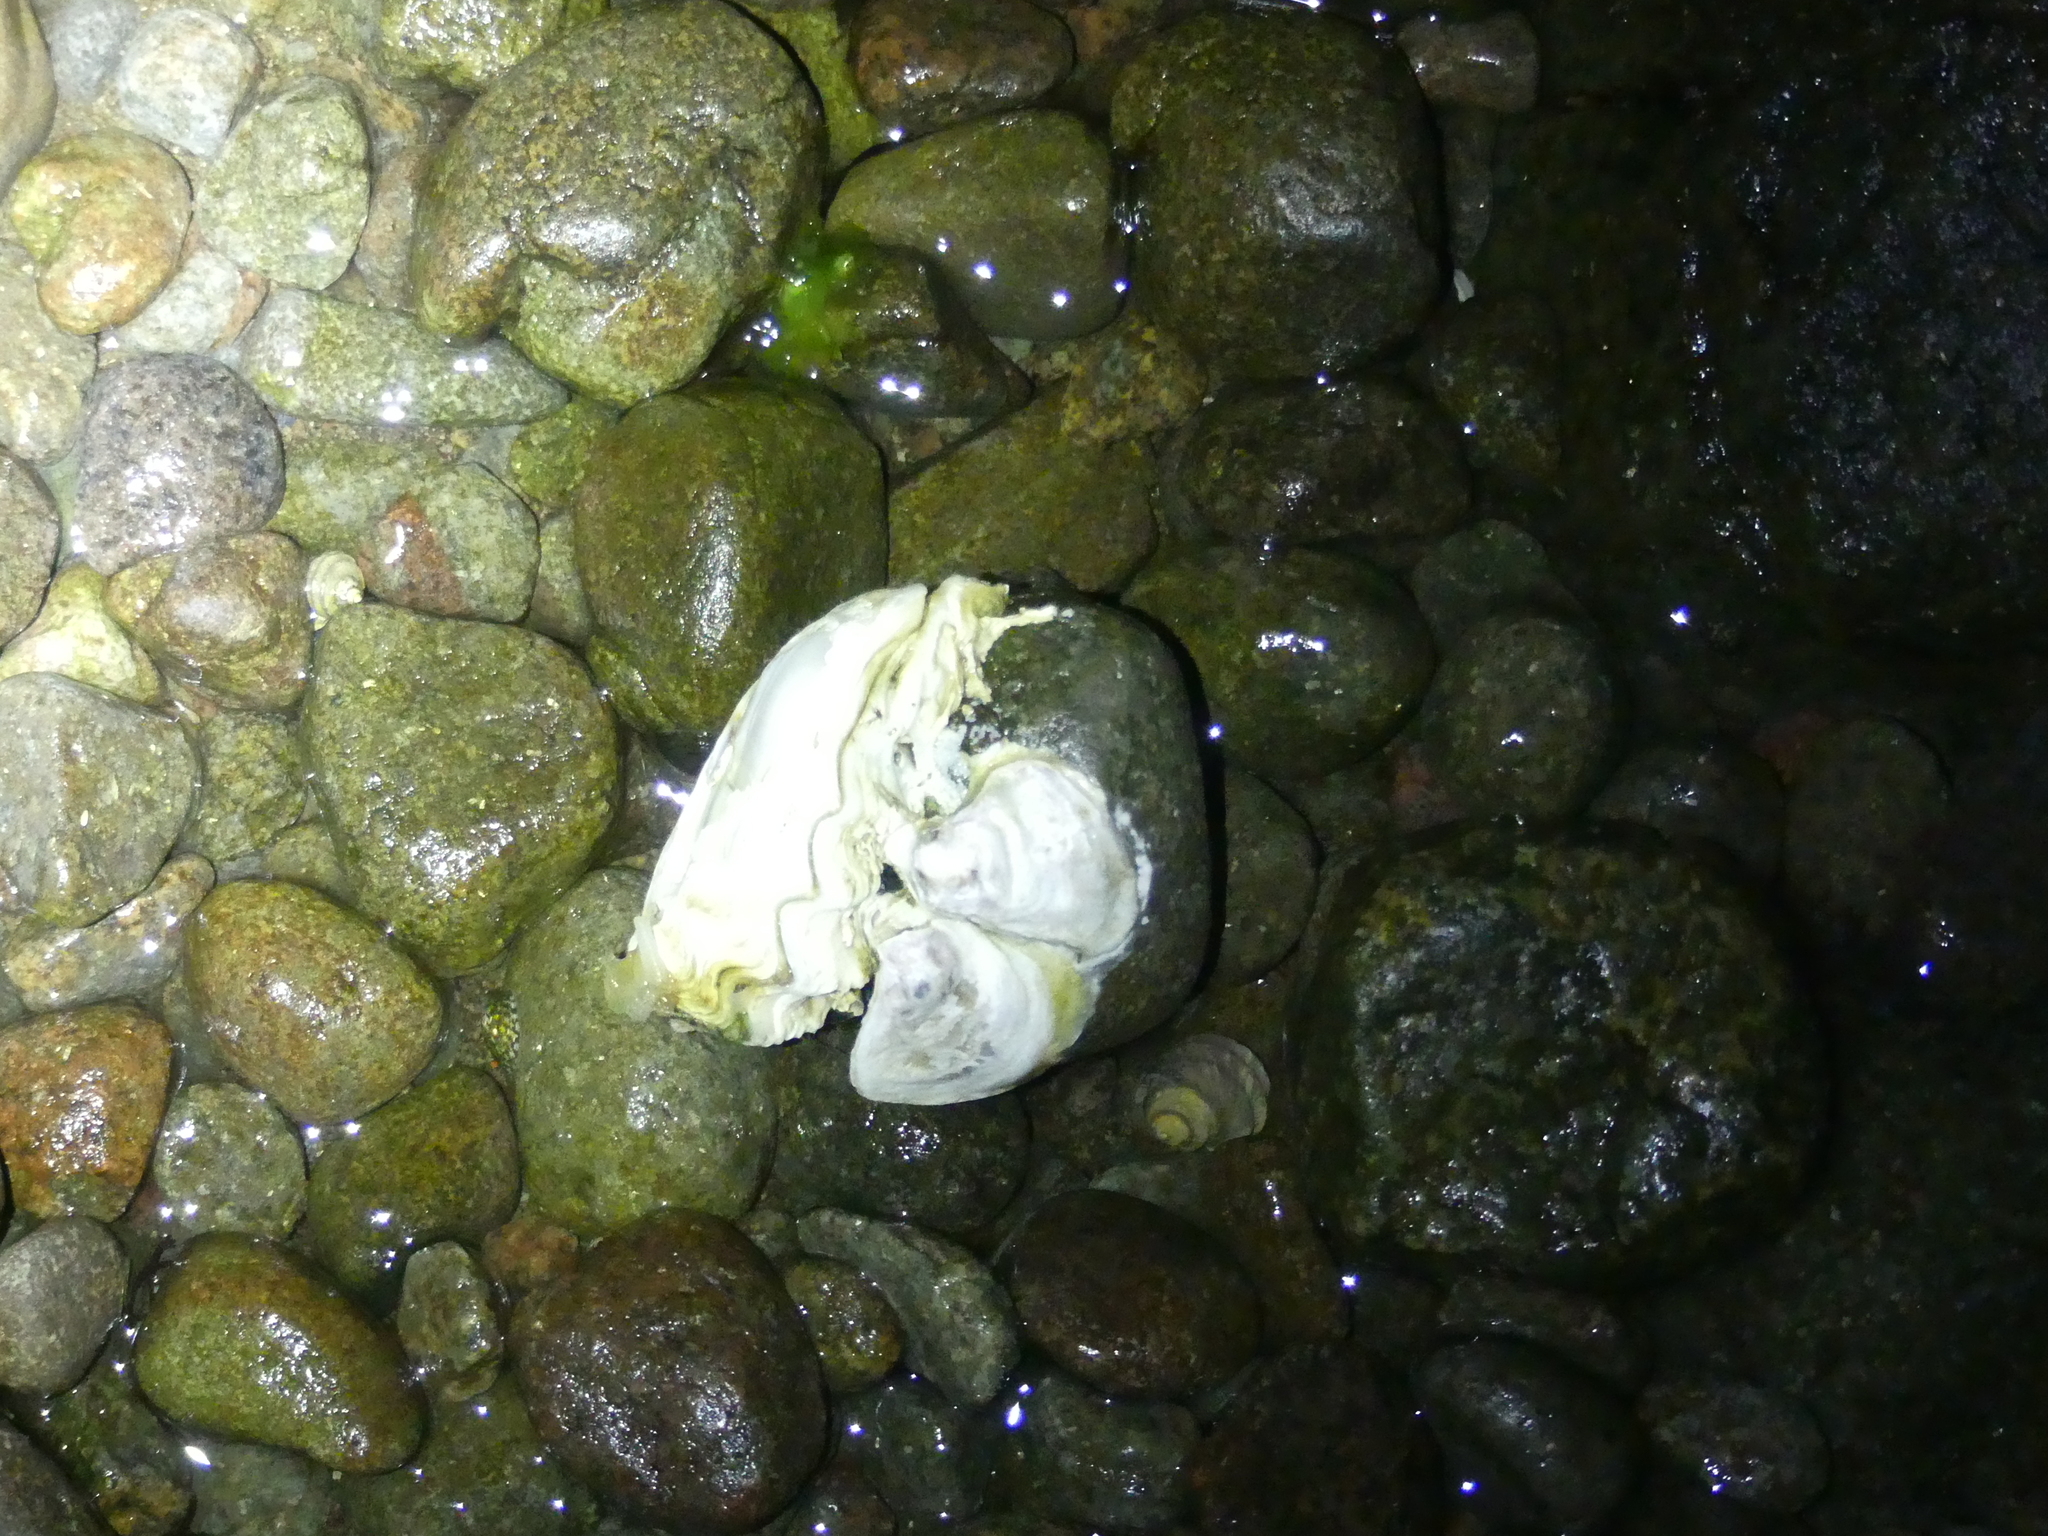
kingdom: Animalia
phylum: Mollusca
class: Bivalvia
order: Ostreida
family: Ostreidae
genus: Magallana
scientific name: Magallana gigas
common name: Pacific oyster
